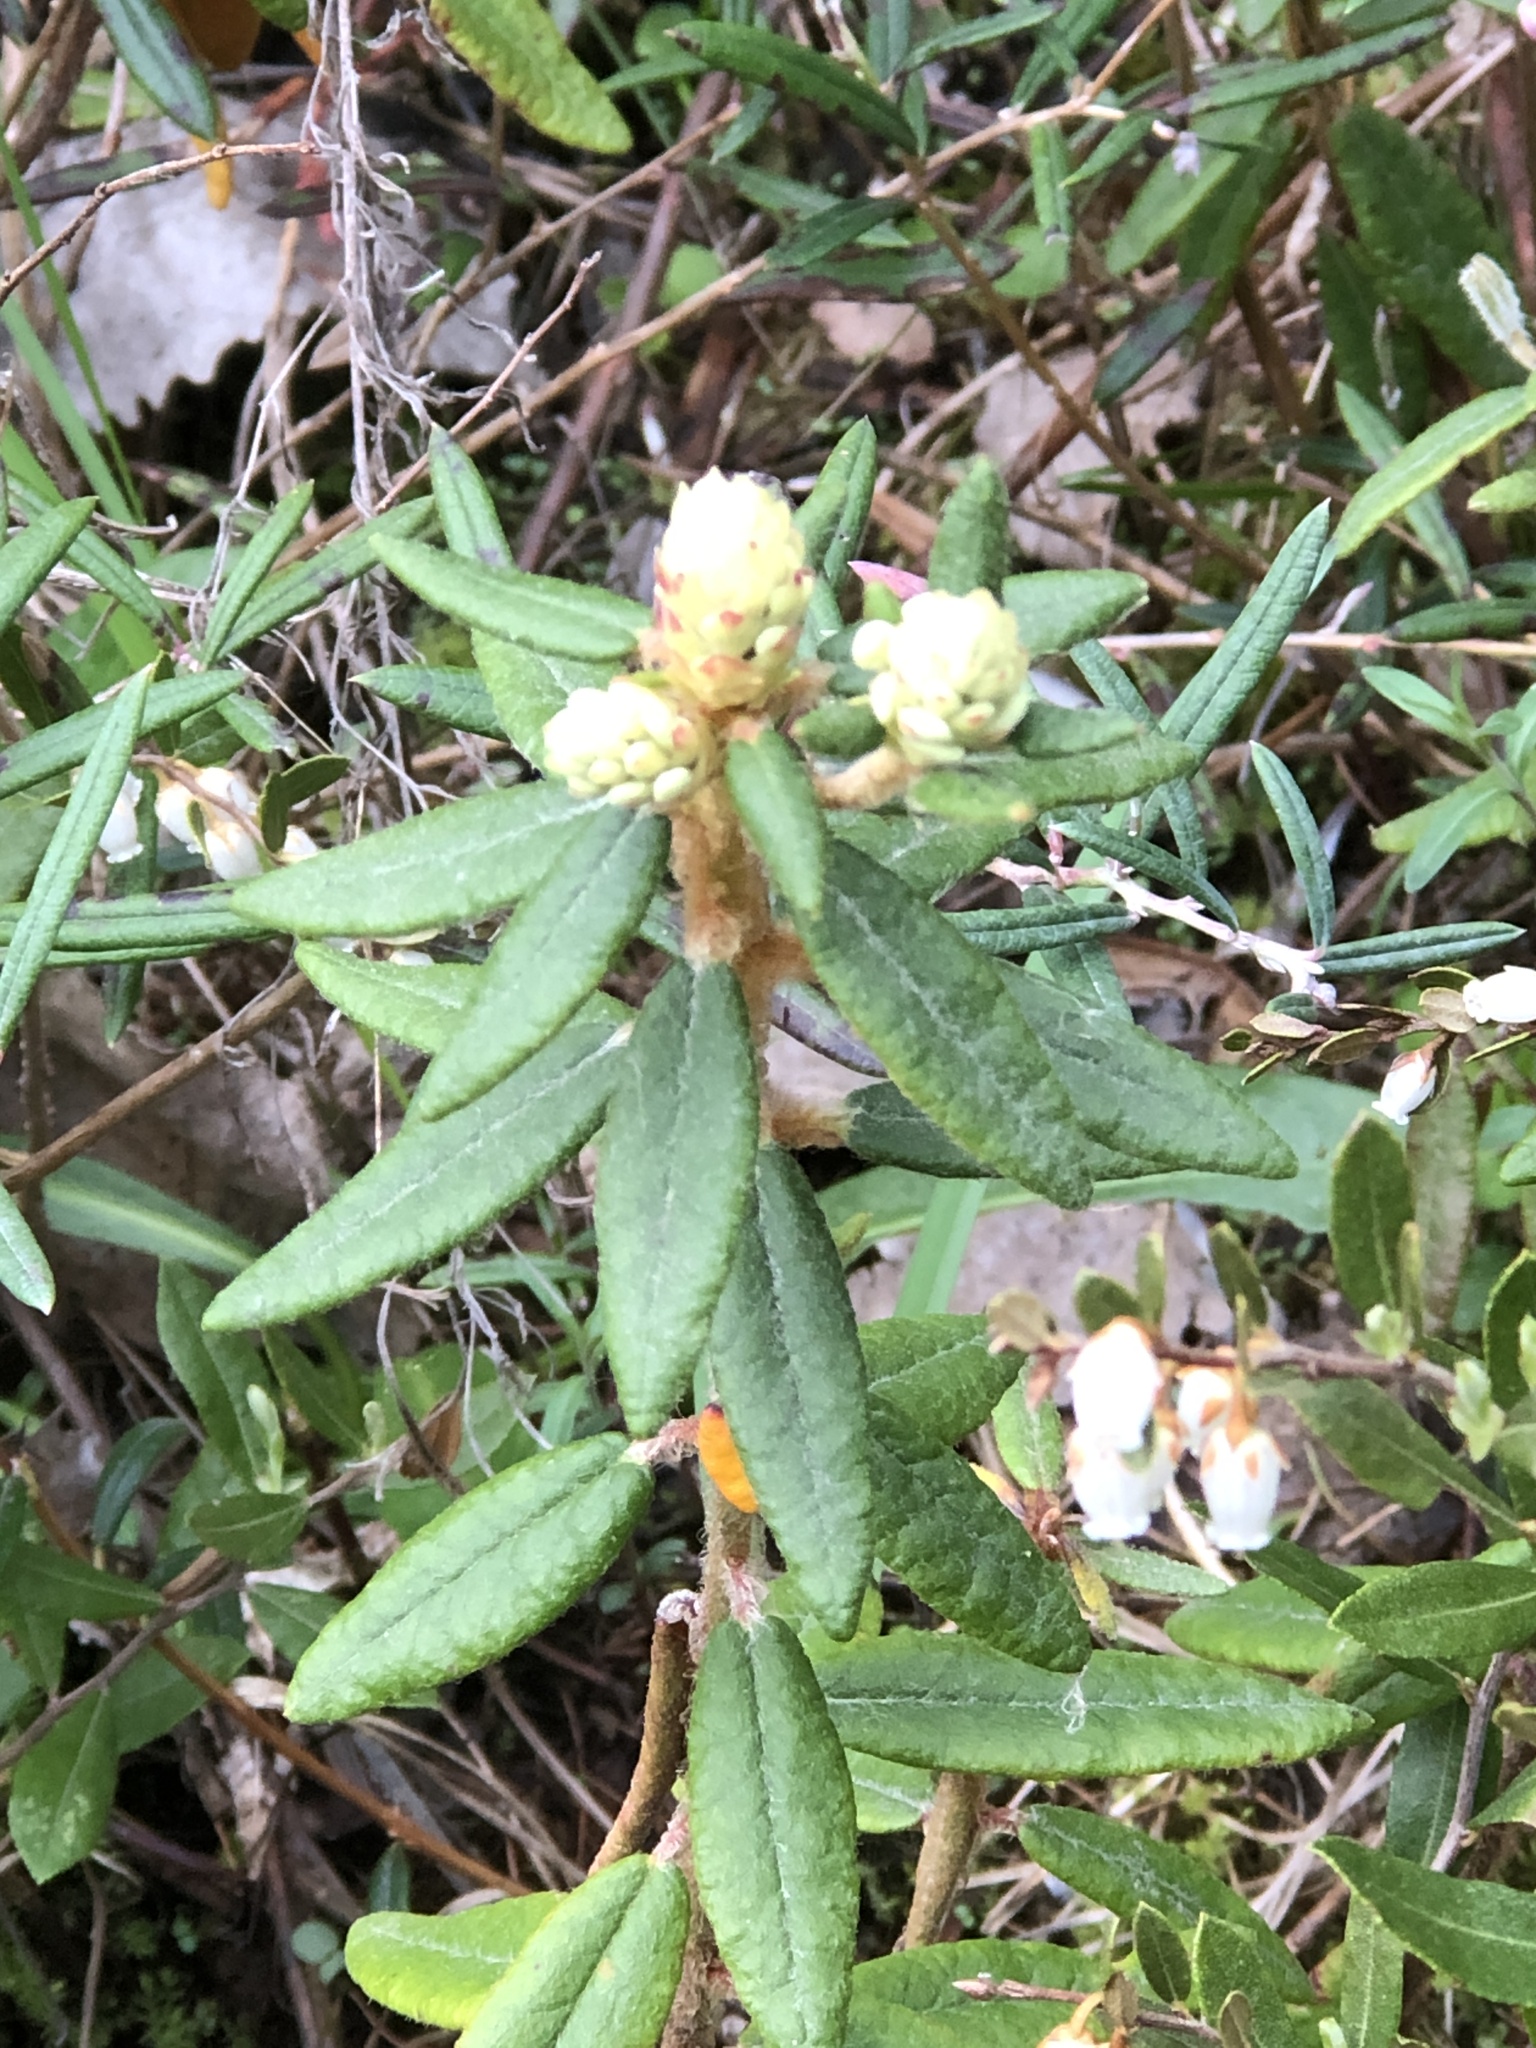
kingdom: Plantae
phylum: Tracheophyta
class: Magnoliopsida
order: Ericales
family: Ericaceae
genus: Rhododendron
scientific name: Rhododendron groenlandicum
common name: Bog labrador tea
